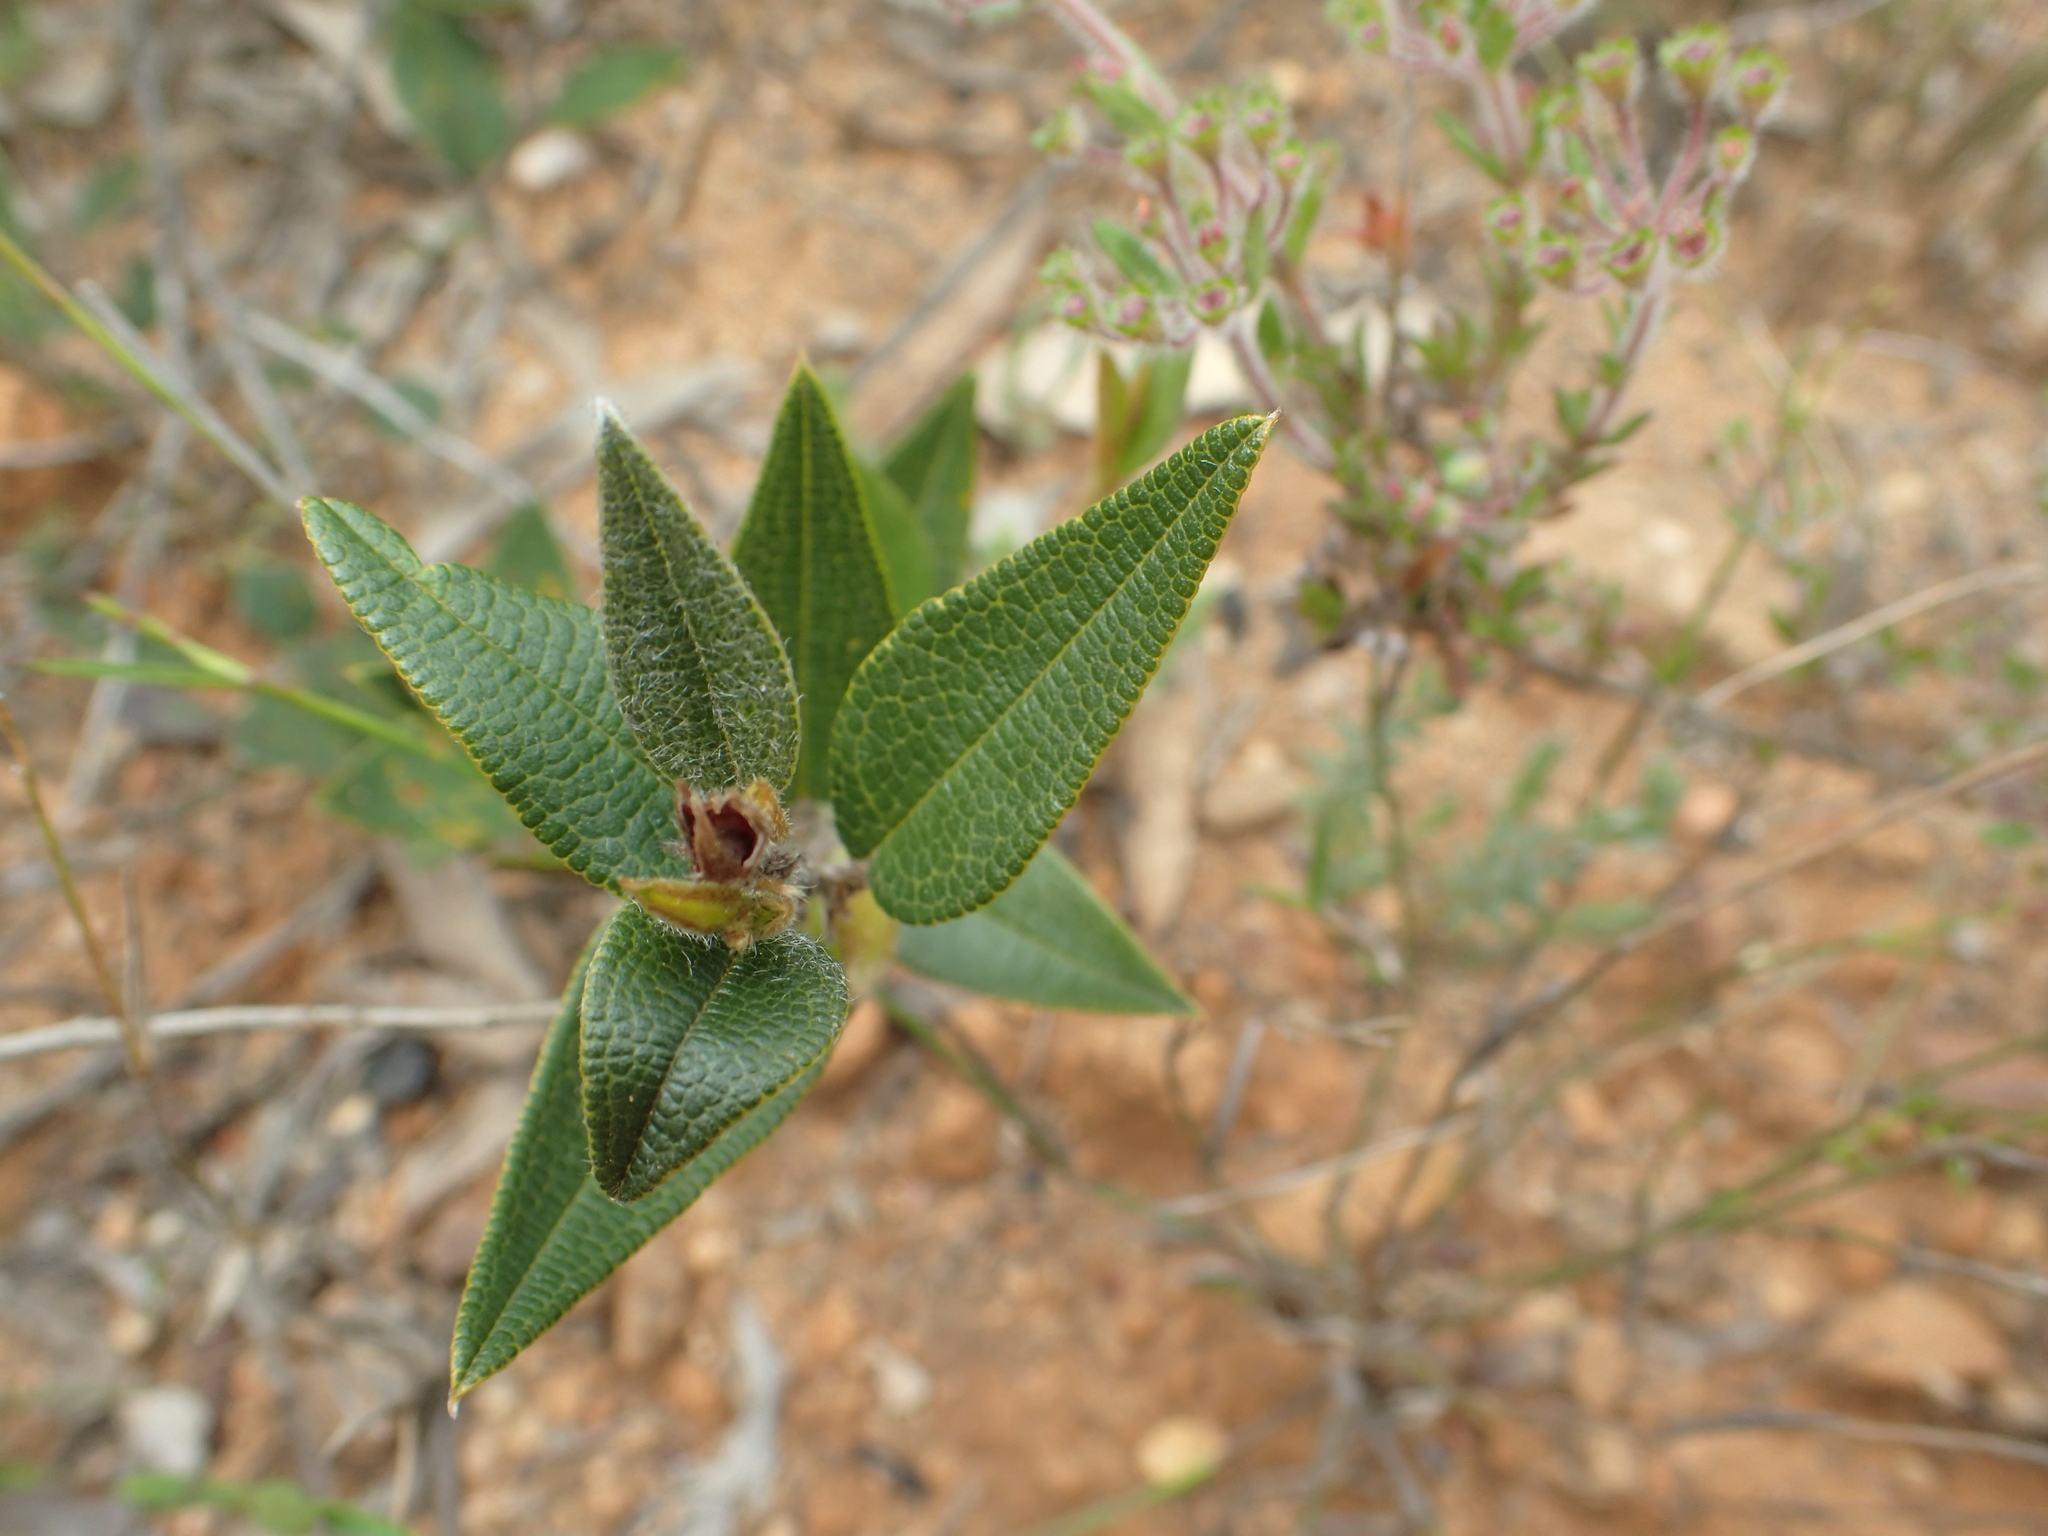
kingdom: Plantae
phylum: Tracheophyta
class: Magnoliopsida
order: Fabales
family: Fabaceae
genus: Mirbelia
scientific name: Mirbelia platylobioides
